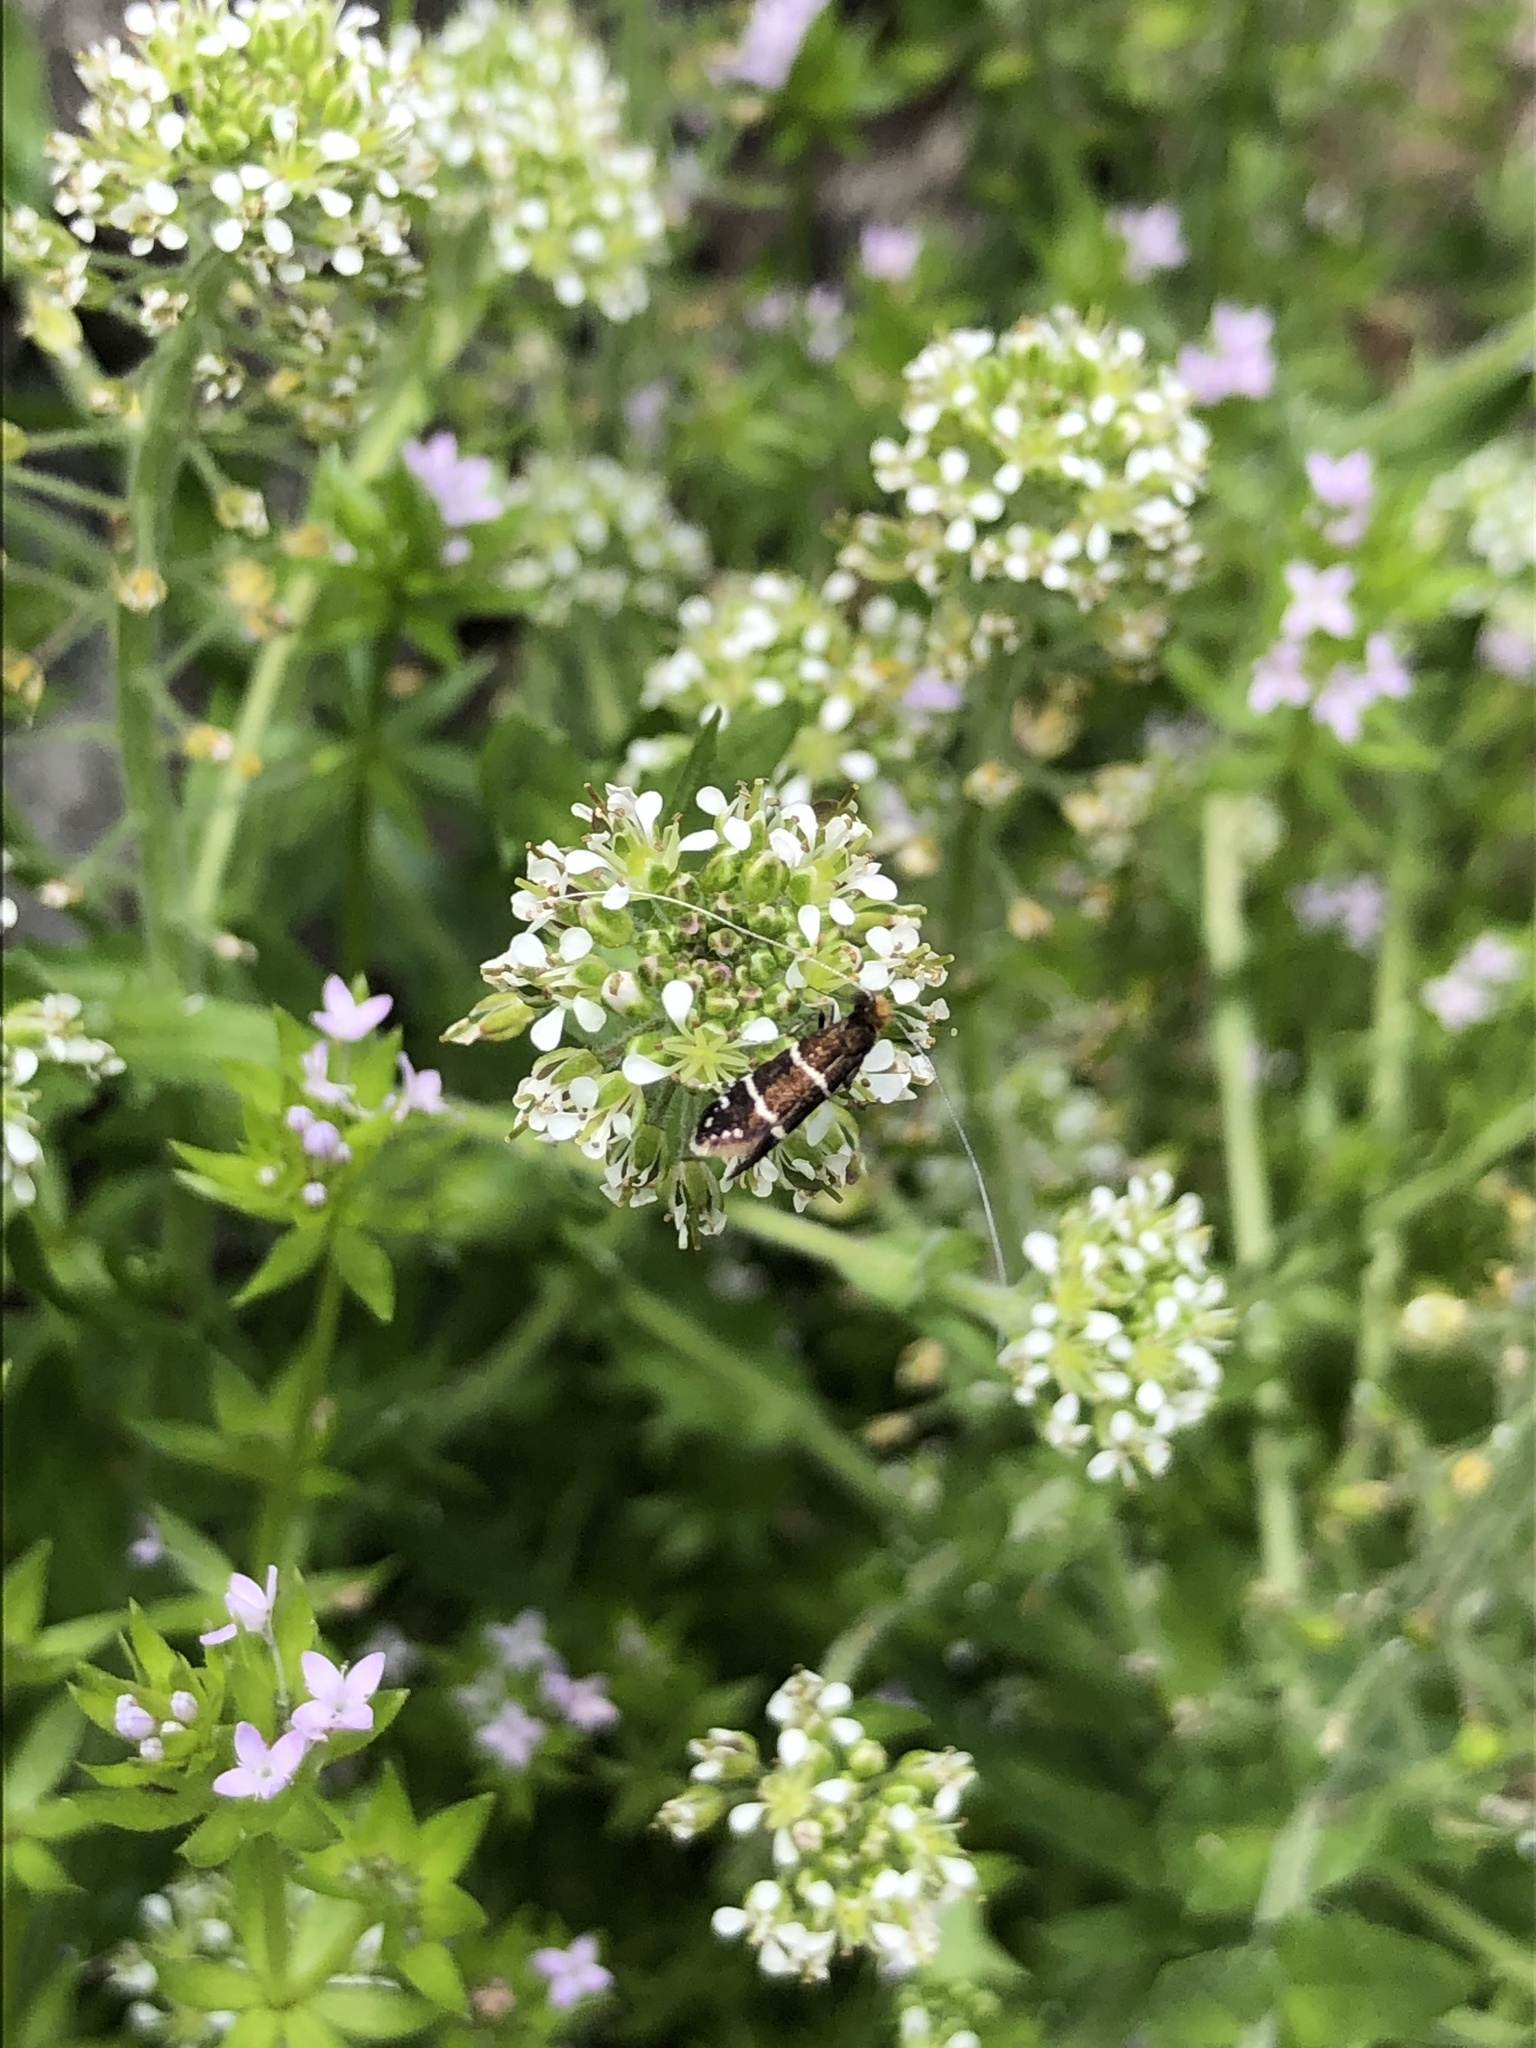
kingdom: Animalia
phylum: Arthropoda
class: Insecta
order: Lepidoptera
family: Adelidae
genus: Adela
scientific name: Adela septentrionella
